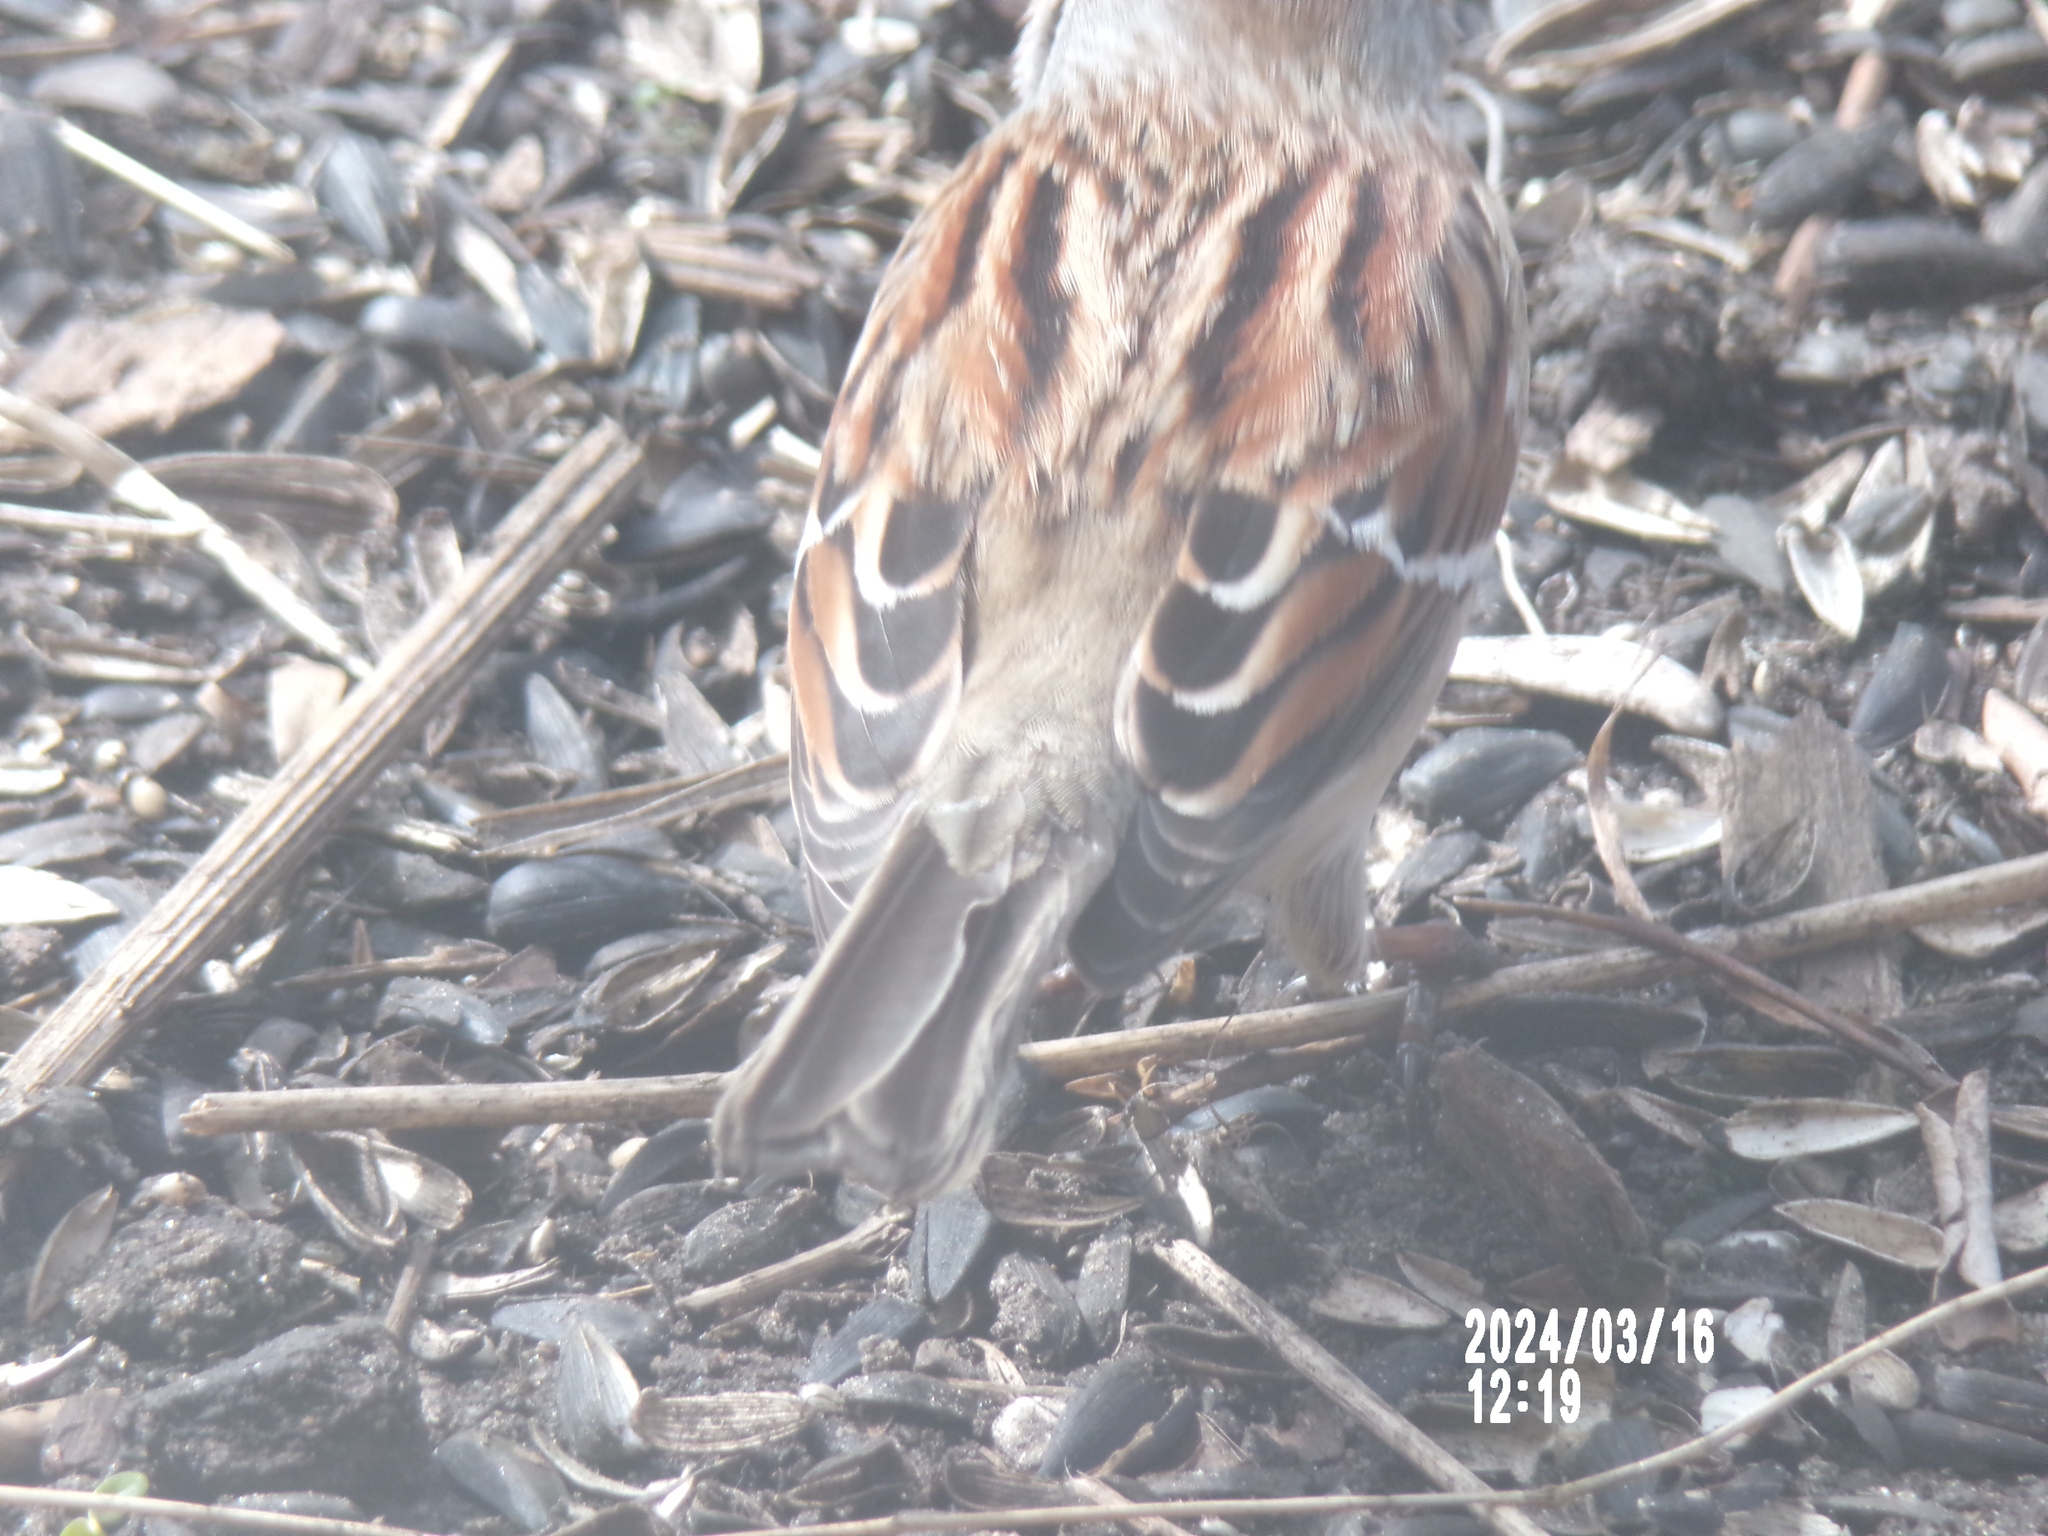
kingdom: Animalia
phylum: Chordata
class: Aves
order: Passeriformes
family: Passerellidae
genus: Spizelloides
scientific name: Spizelloides arborea
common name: American tree sparrow
